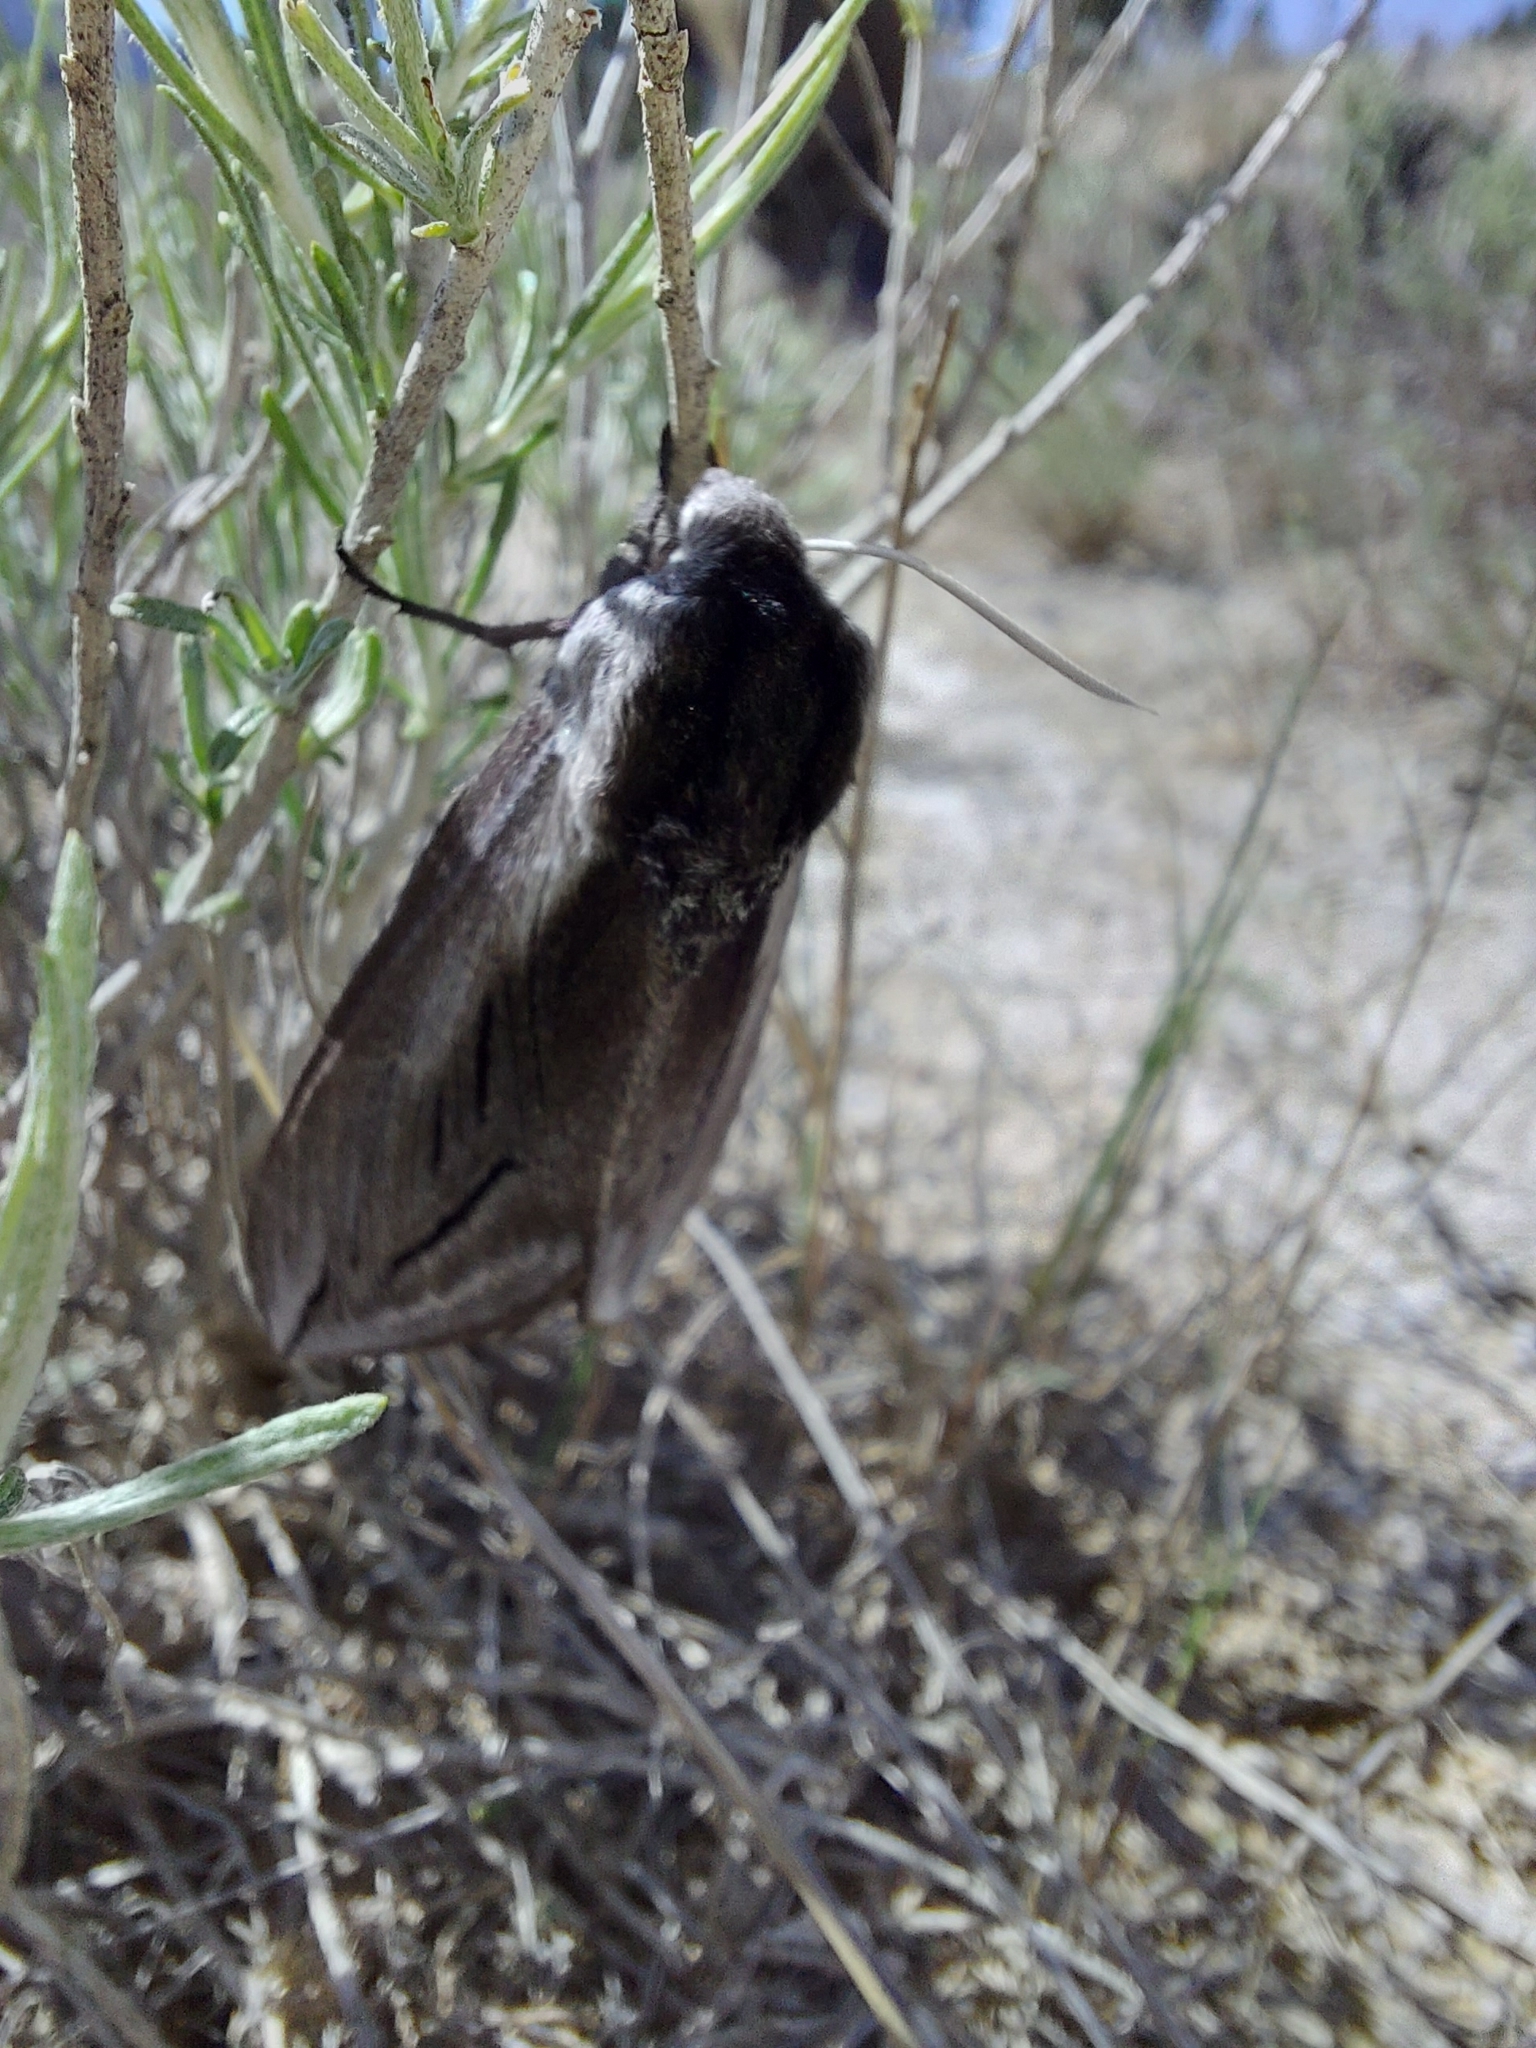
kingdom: Animalia
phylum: Arthropoda
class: Insecta
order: Lepidoptera
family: Sphingidae
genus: Sphinx
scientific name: Sphinx vashti
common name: Snowberry sphinx
